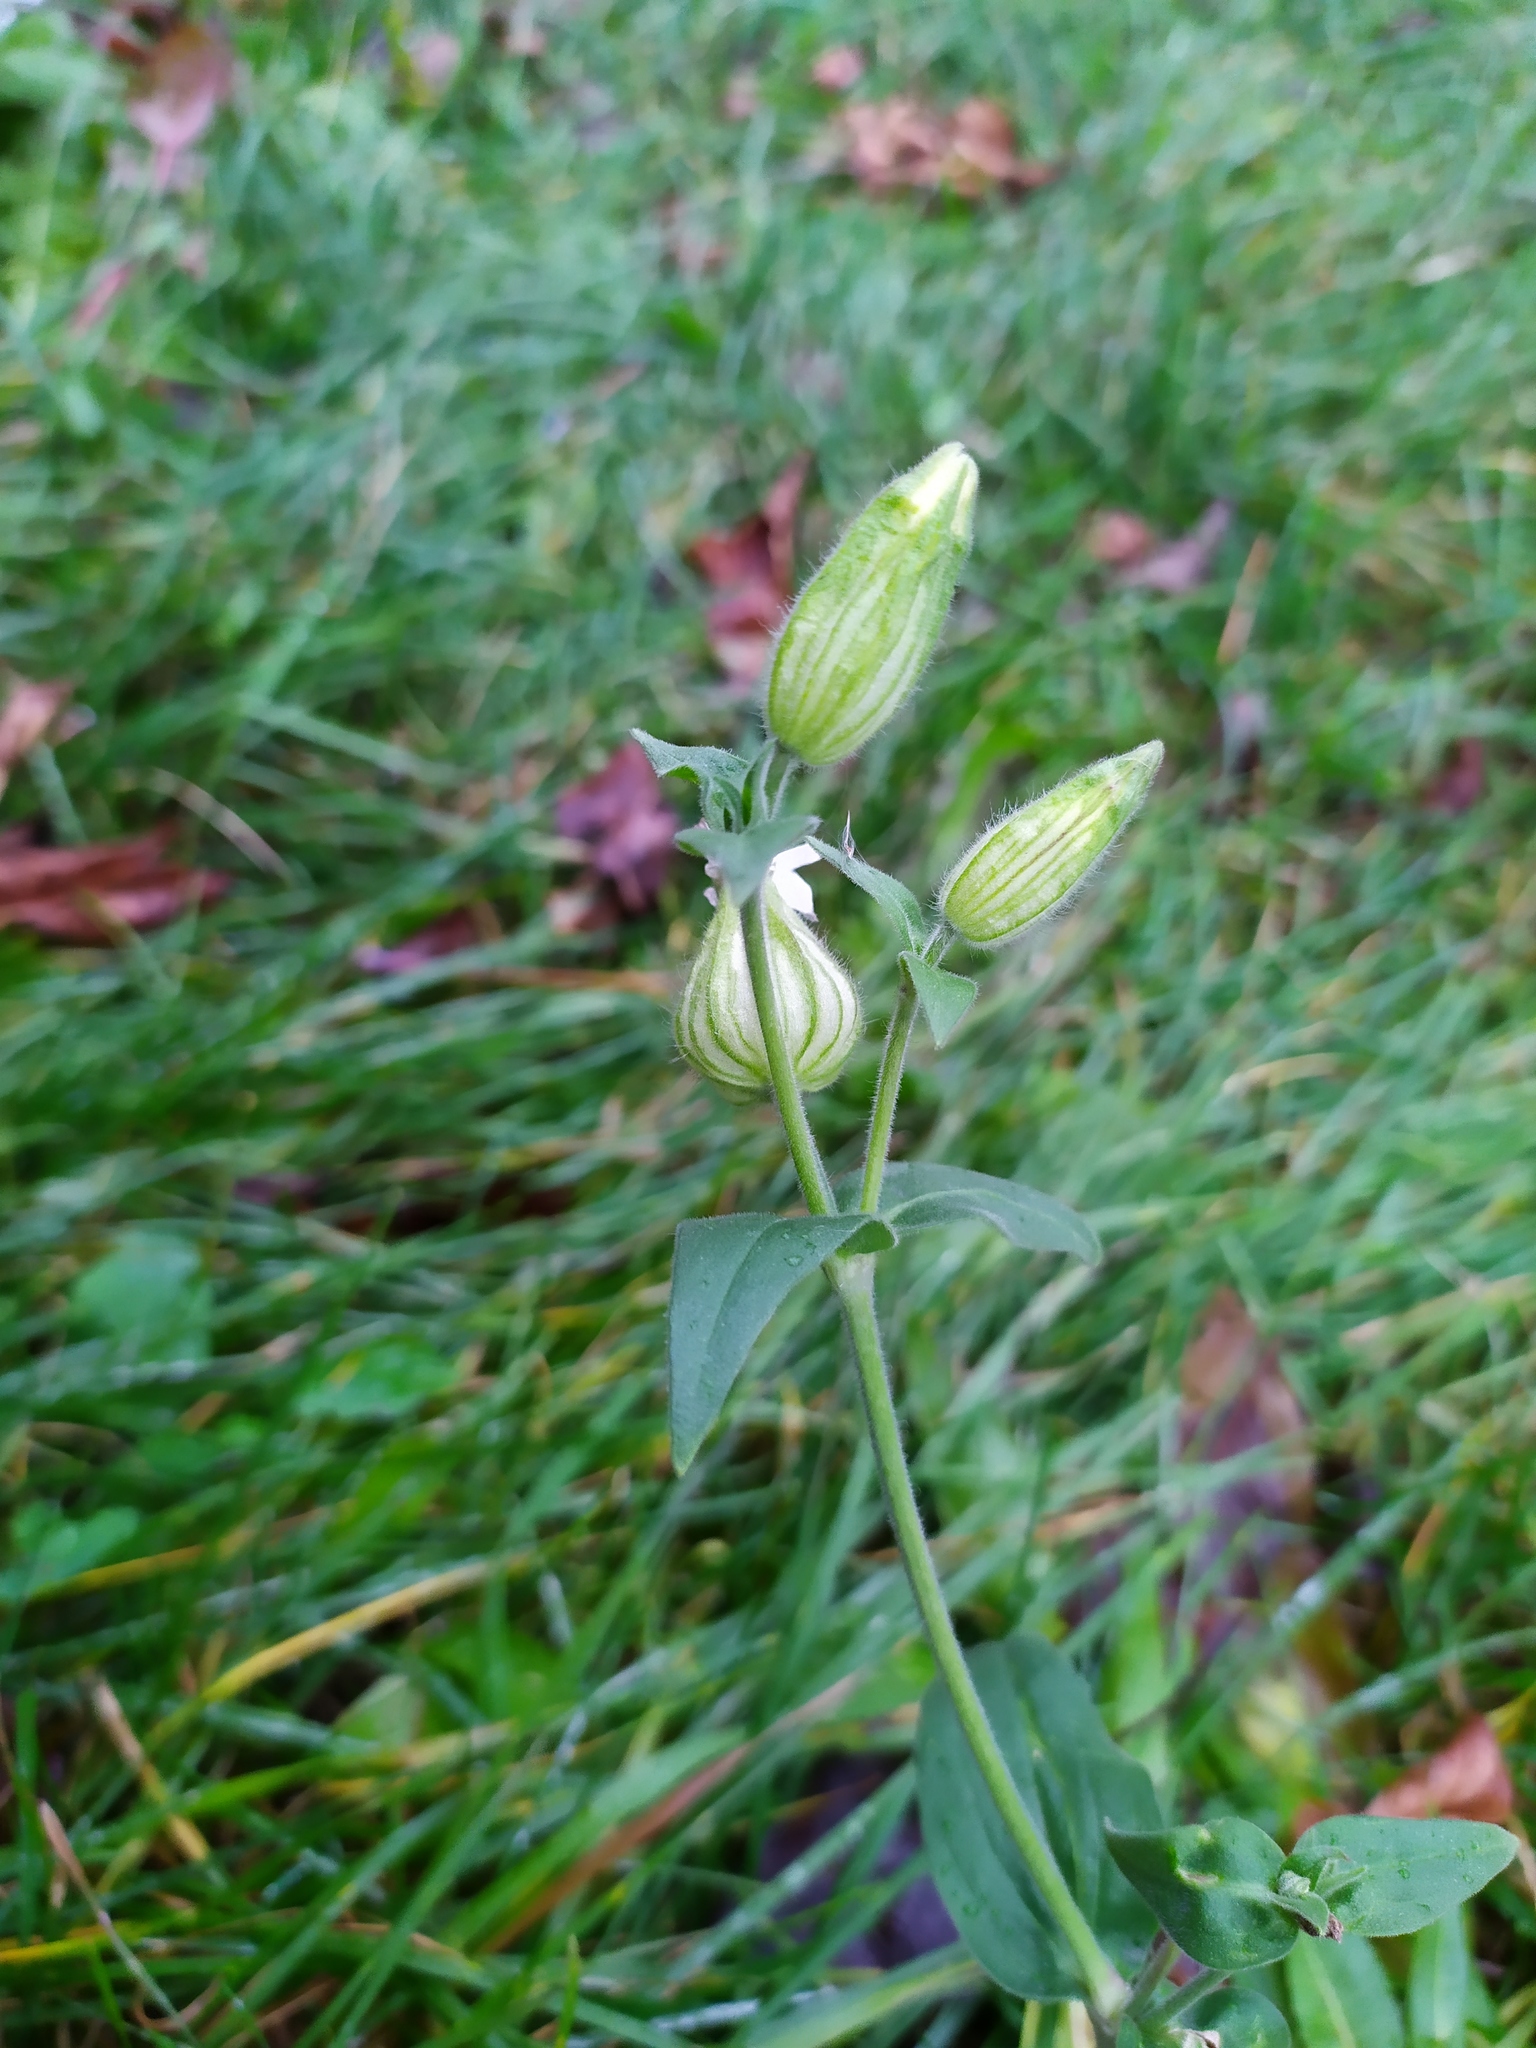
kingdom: Plantae
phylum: Tracheophyta
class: Magnoliopsida
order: Caryophyllales
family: Caryophyllaceae
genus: Silene
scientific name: Silene latifolia
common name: White campion
